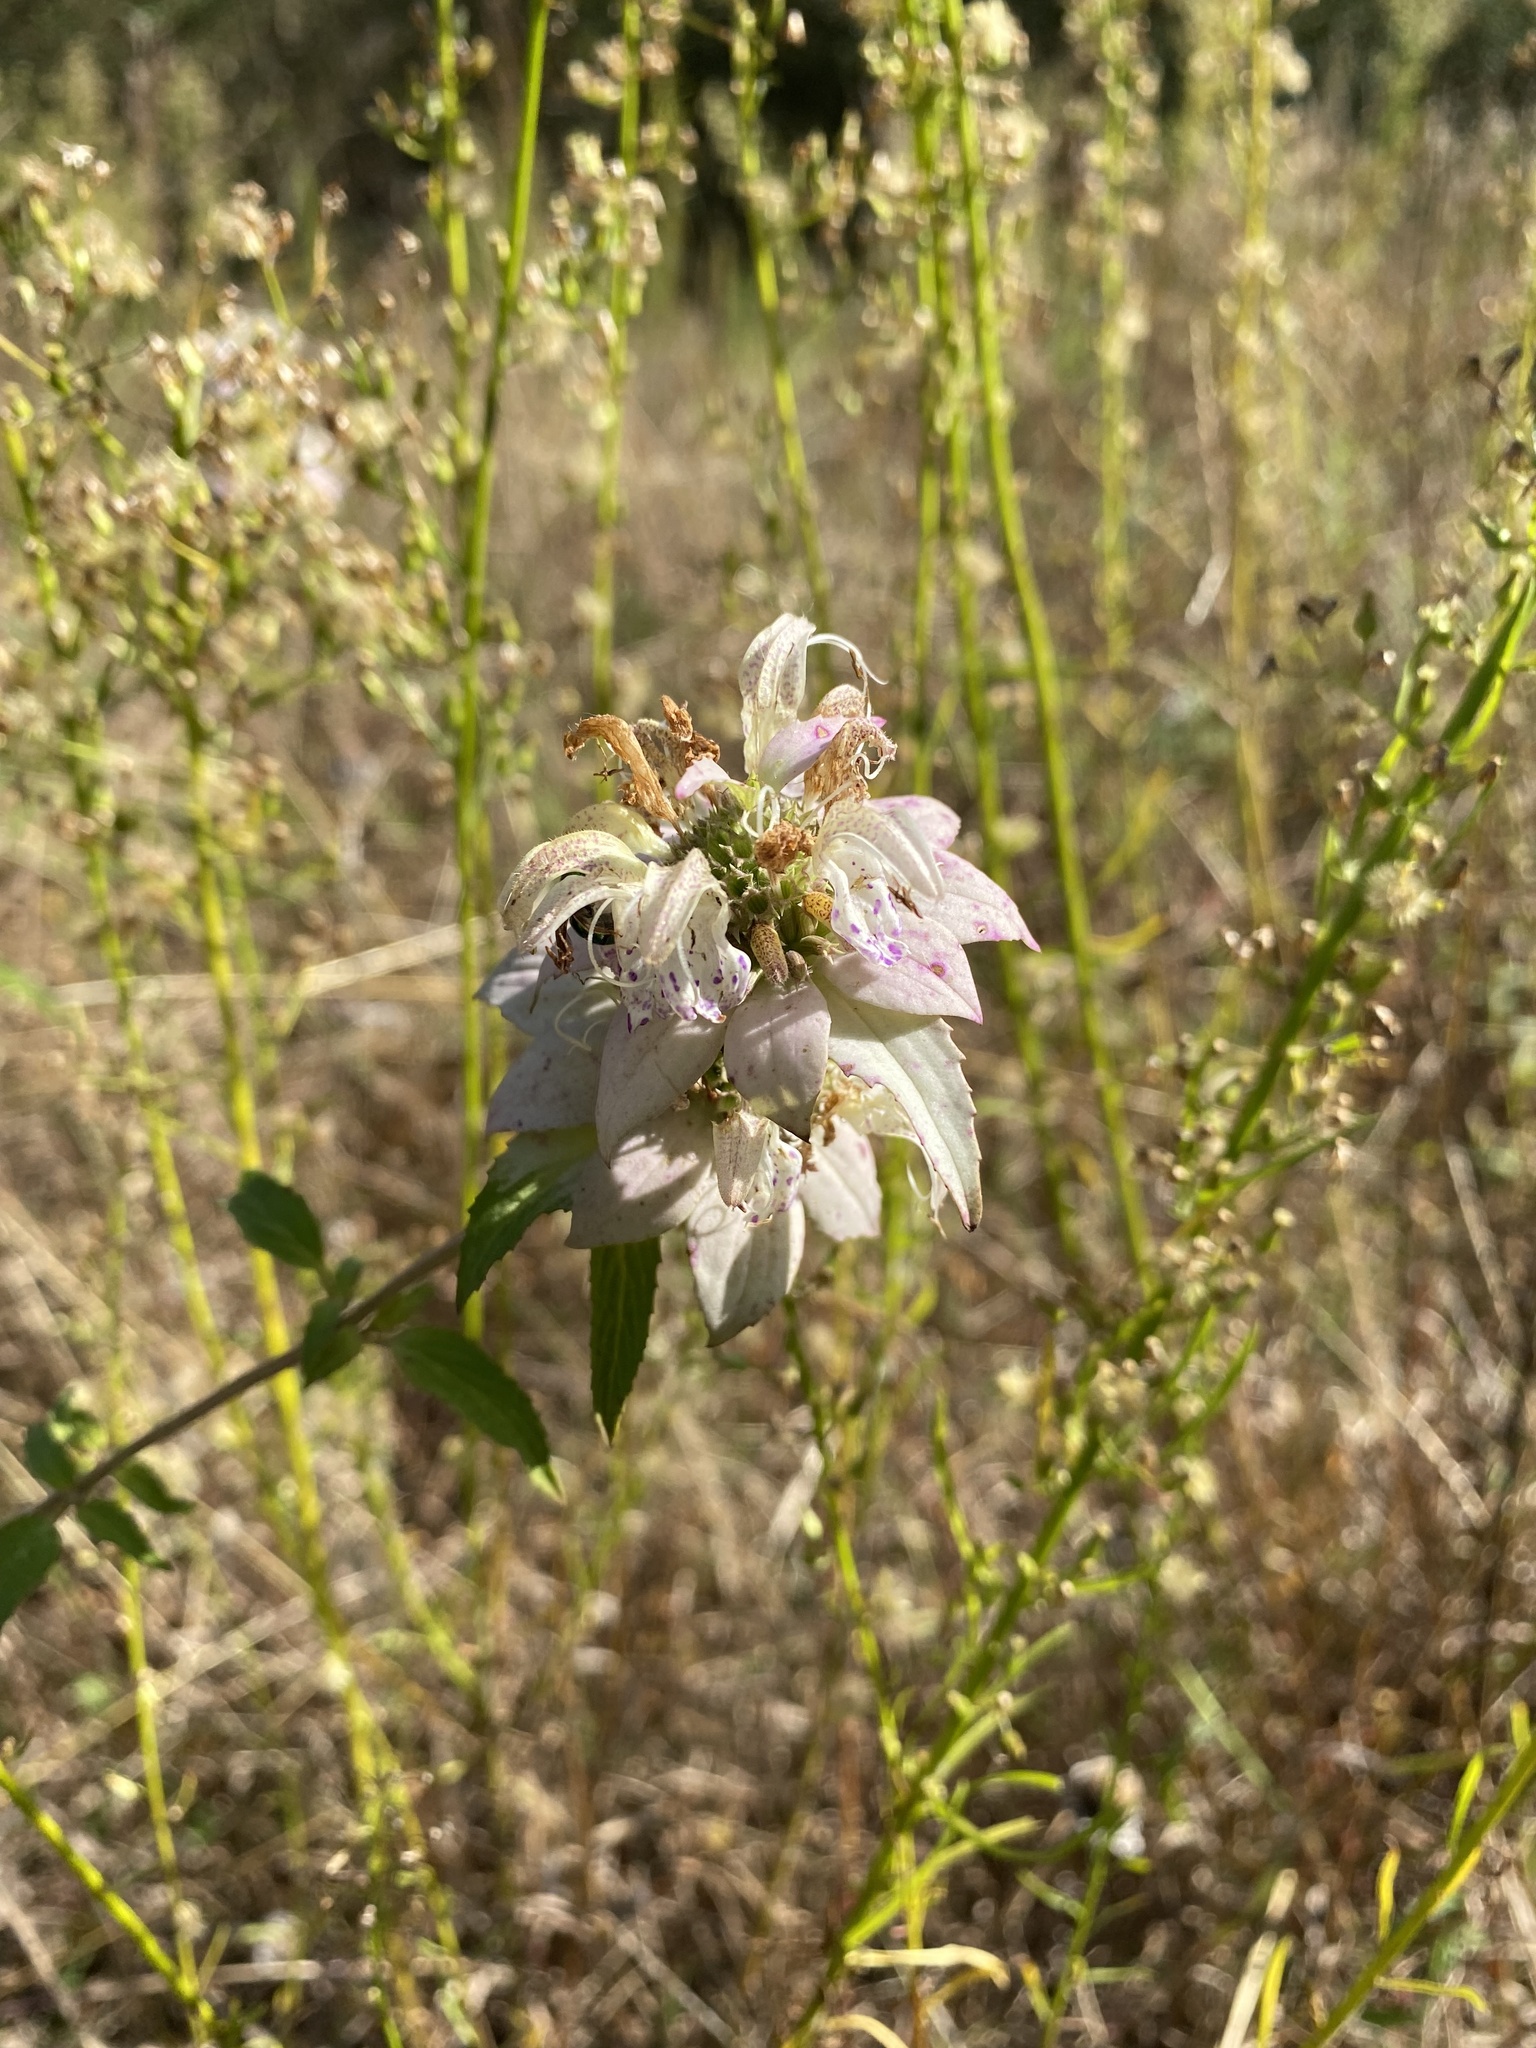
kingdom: Plantae
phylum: Tracheophyta
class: Magnoliopsida
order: Lamiales
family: Lamiaceae
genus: Monarda
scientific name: Monarda punctata
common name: Dotted monarda
